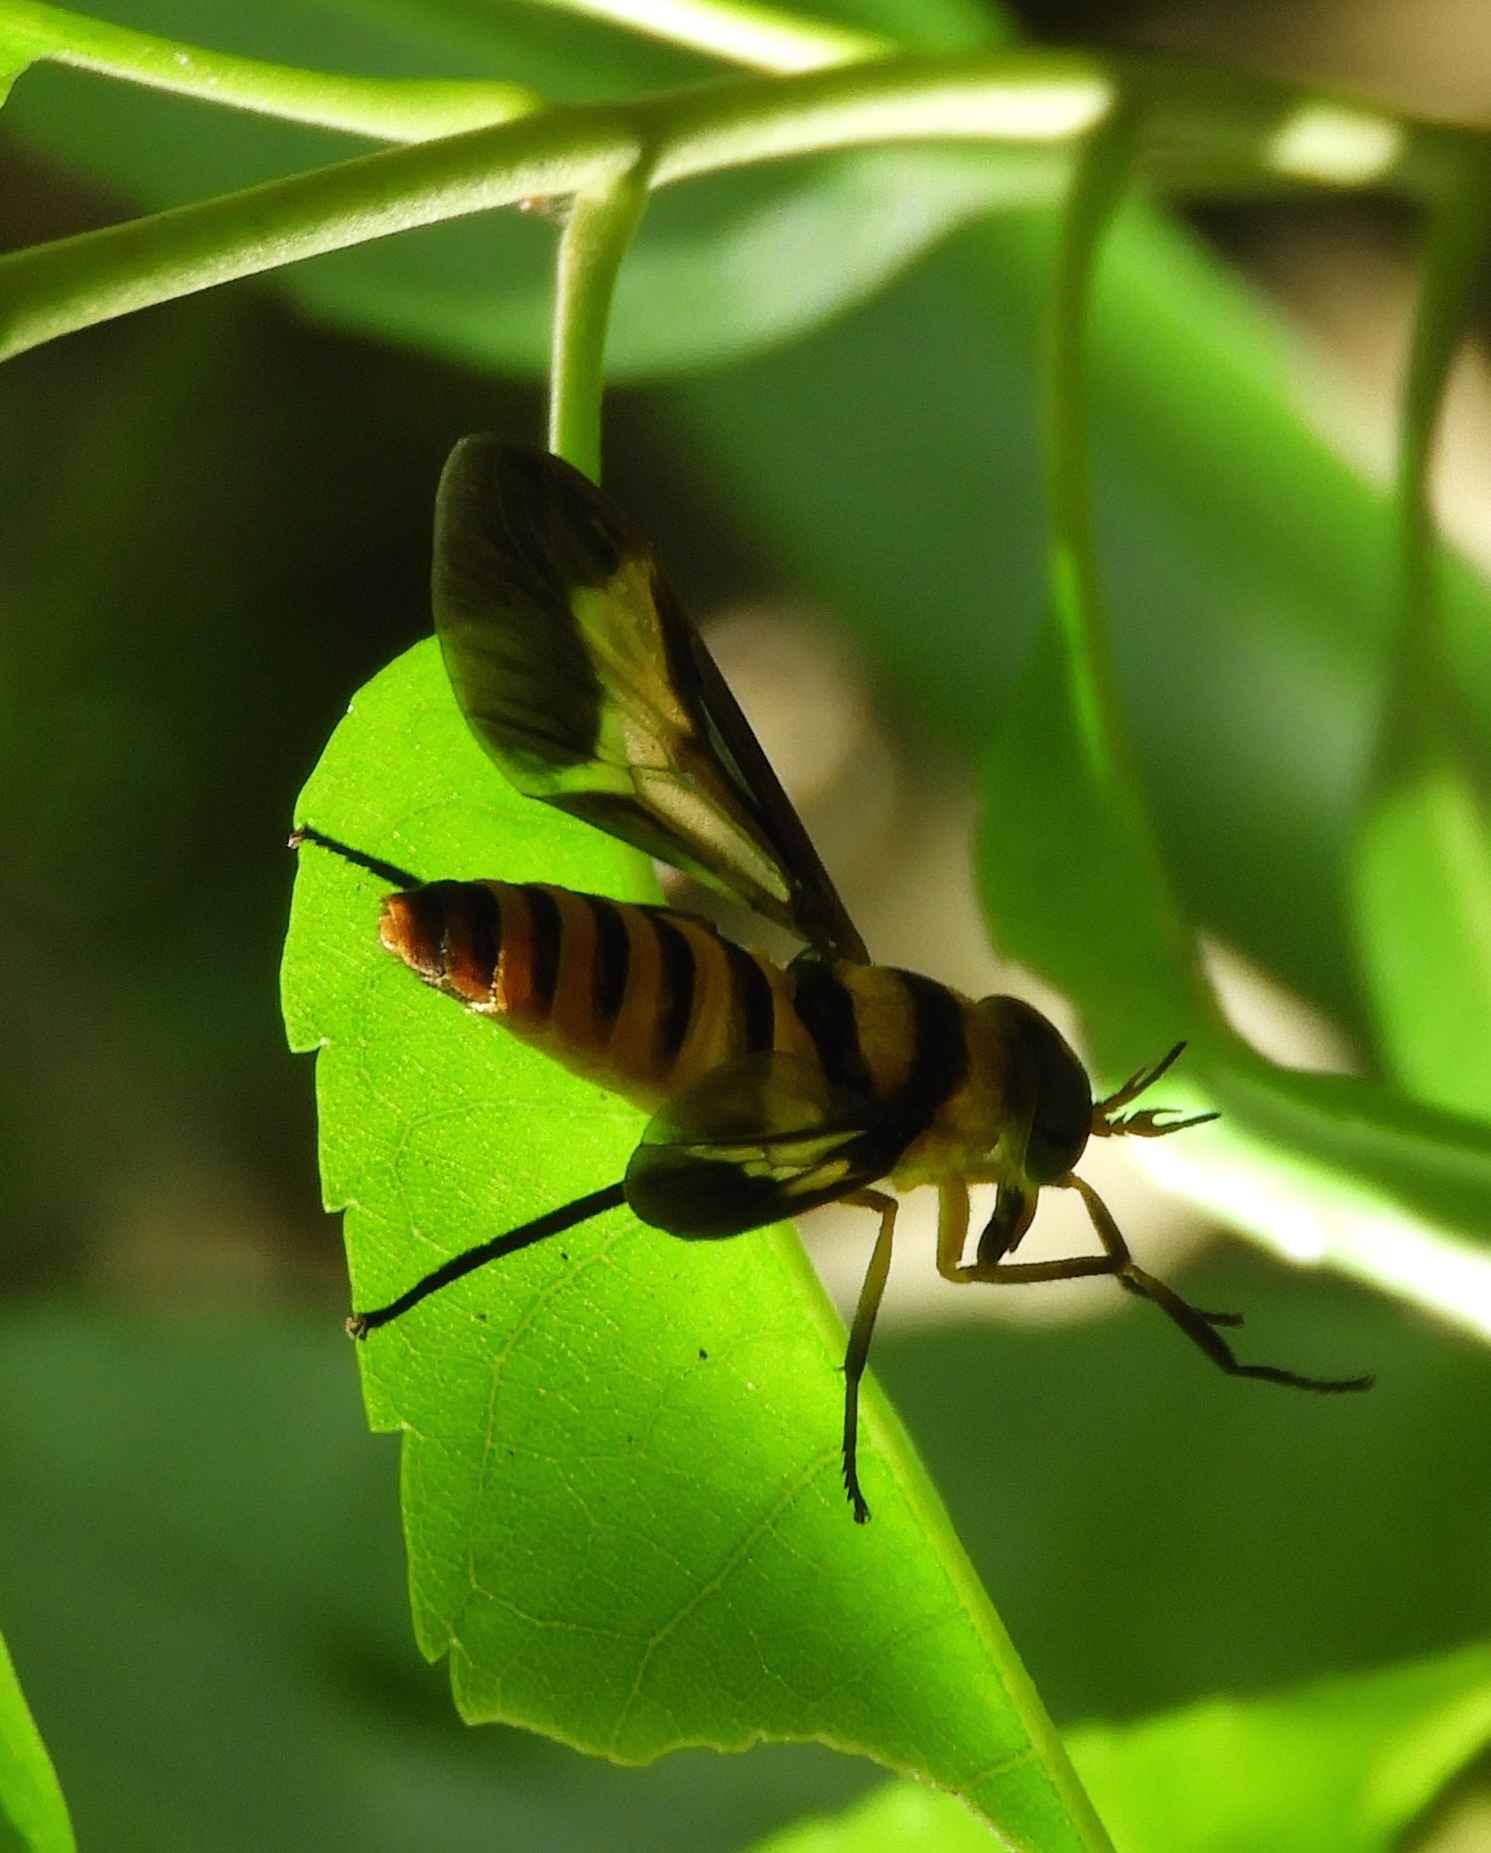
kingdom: Animalia
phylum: Arthropoda
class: Insecta
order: Diptera
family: Tabanidae
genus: Dichelacera
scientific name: Dichelacera
